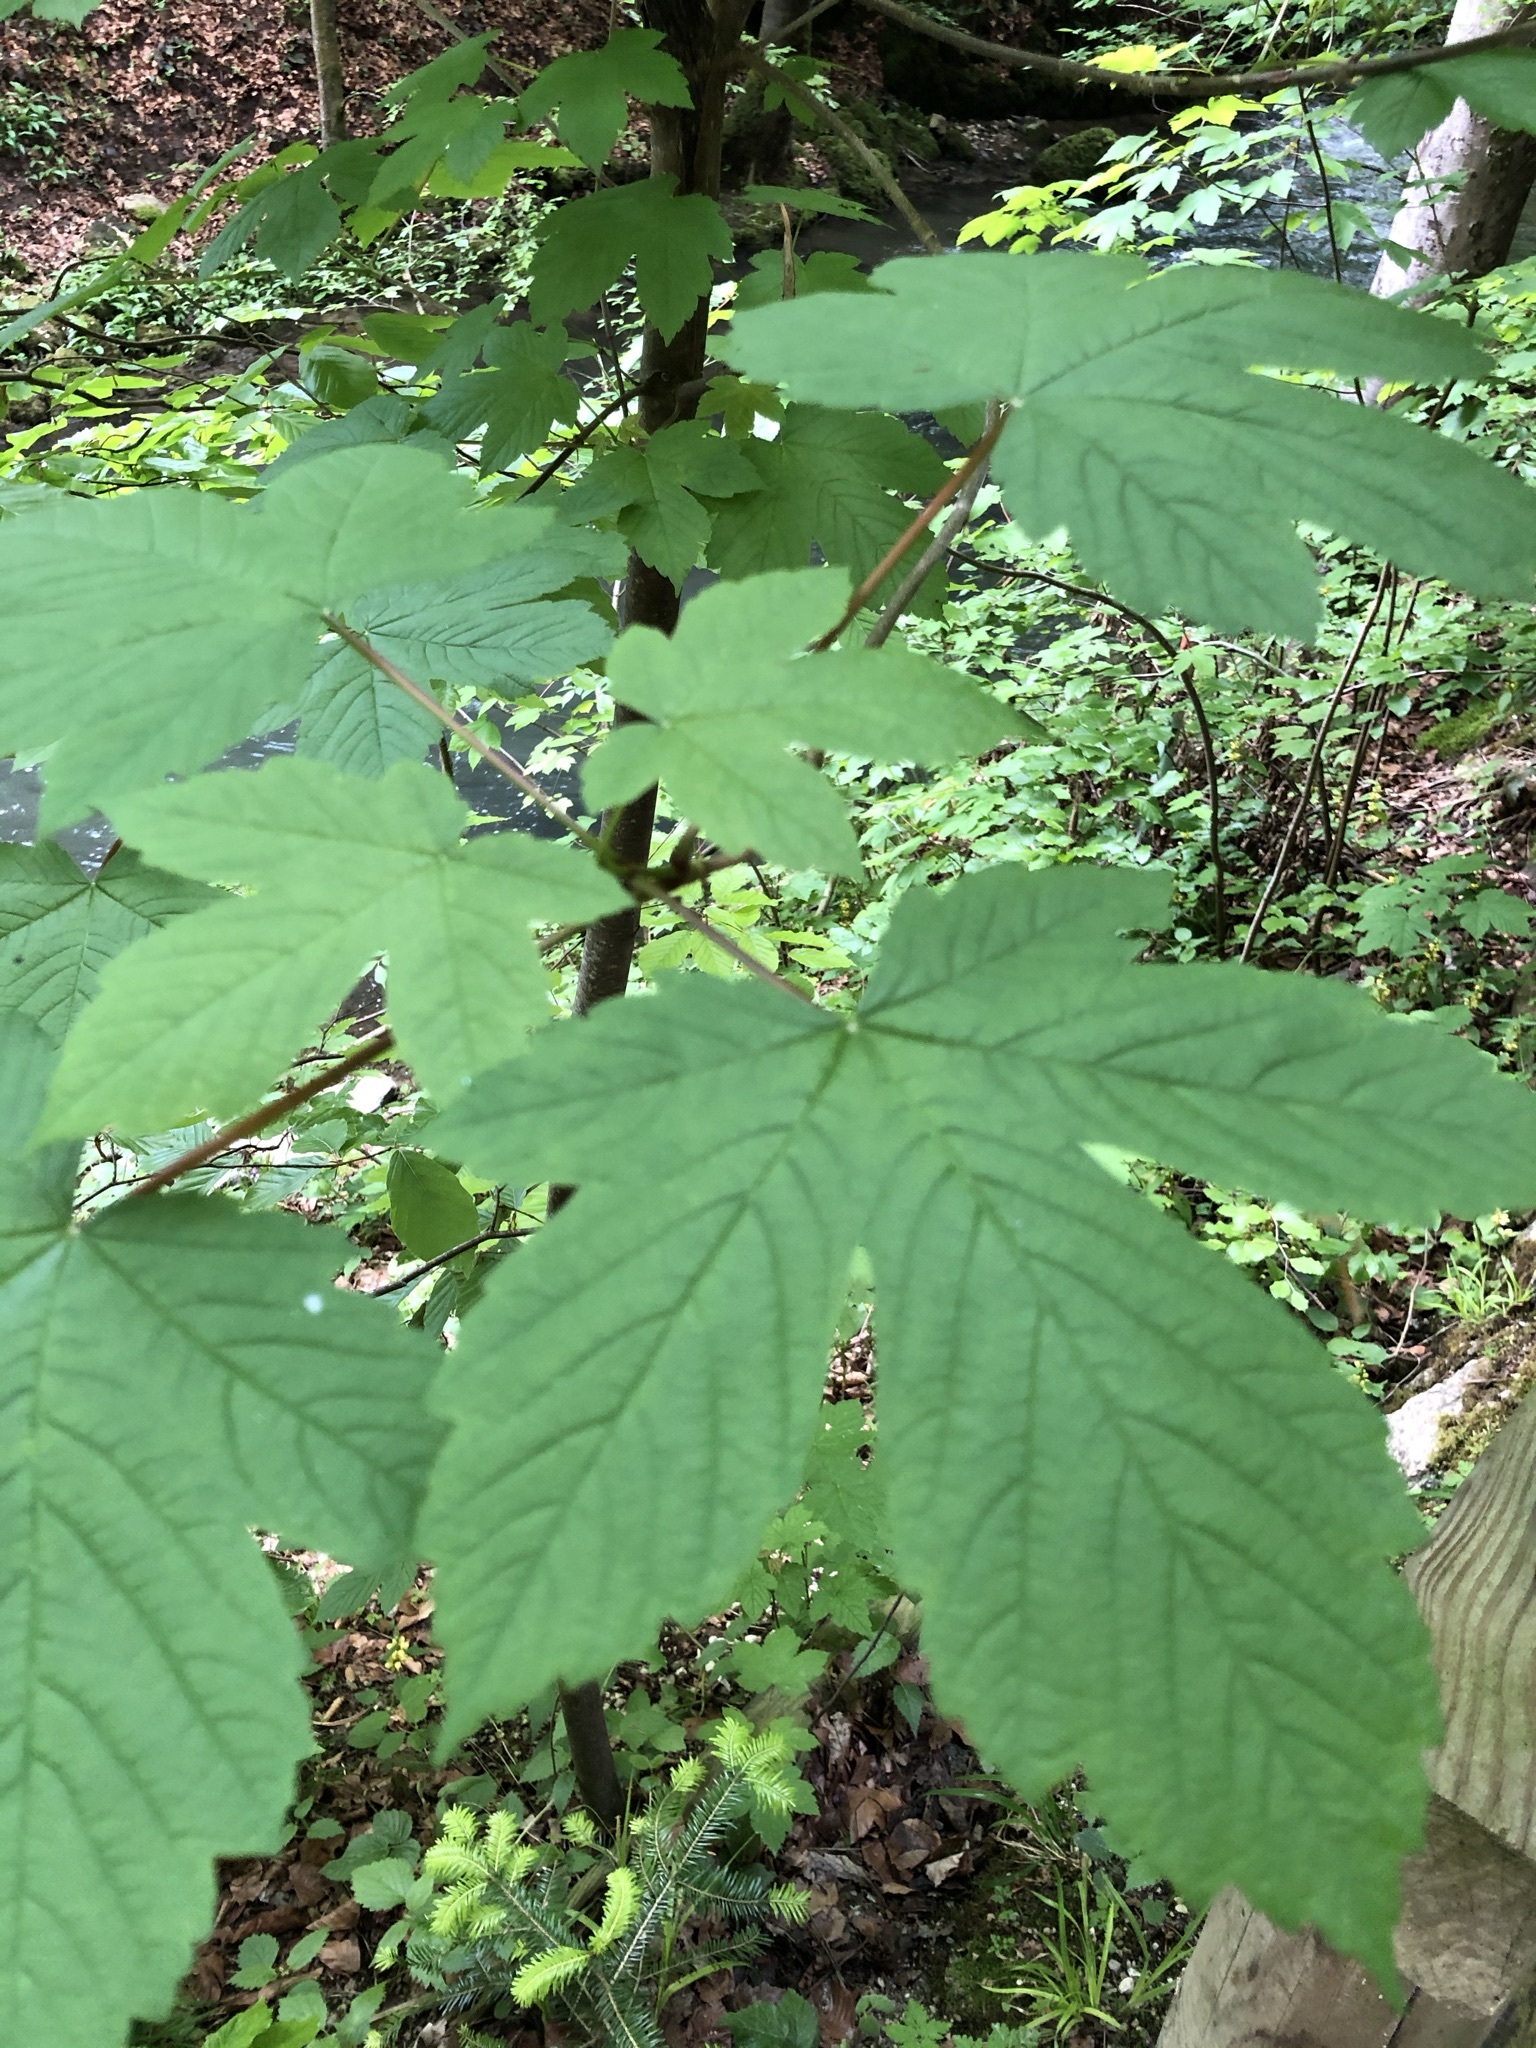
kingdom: Plantae
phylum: Tracheophyta
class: Magnoliopsida
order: Sapindales
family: Sapindaceae
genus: Acer
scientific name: Acer pseudoplatanus
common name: Sycamore
